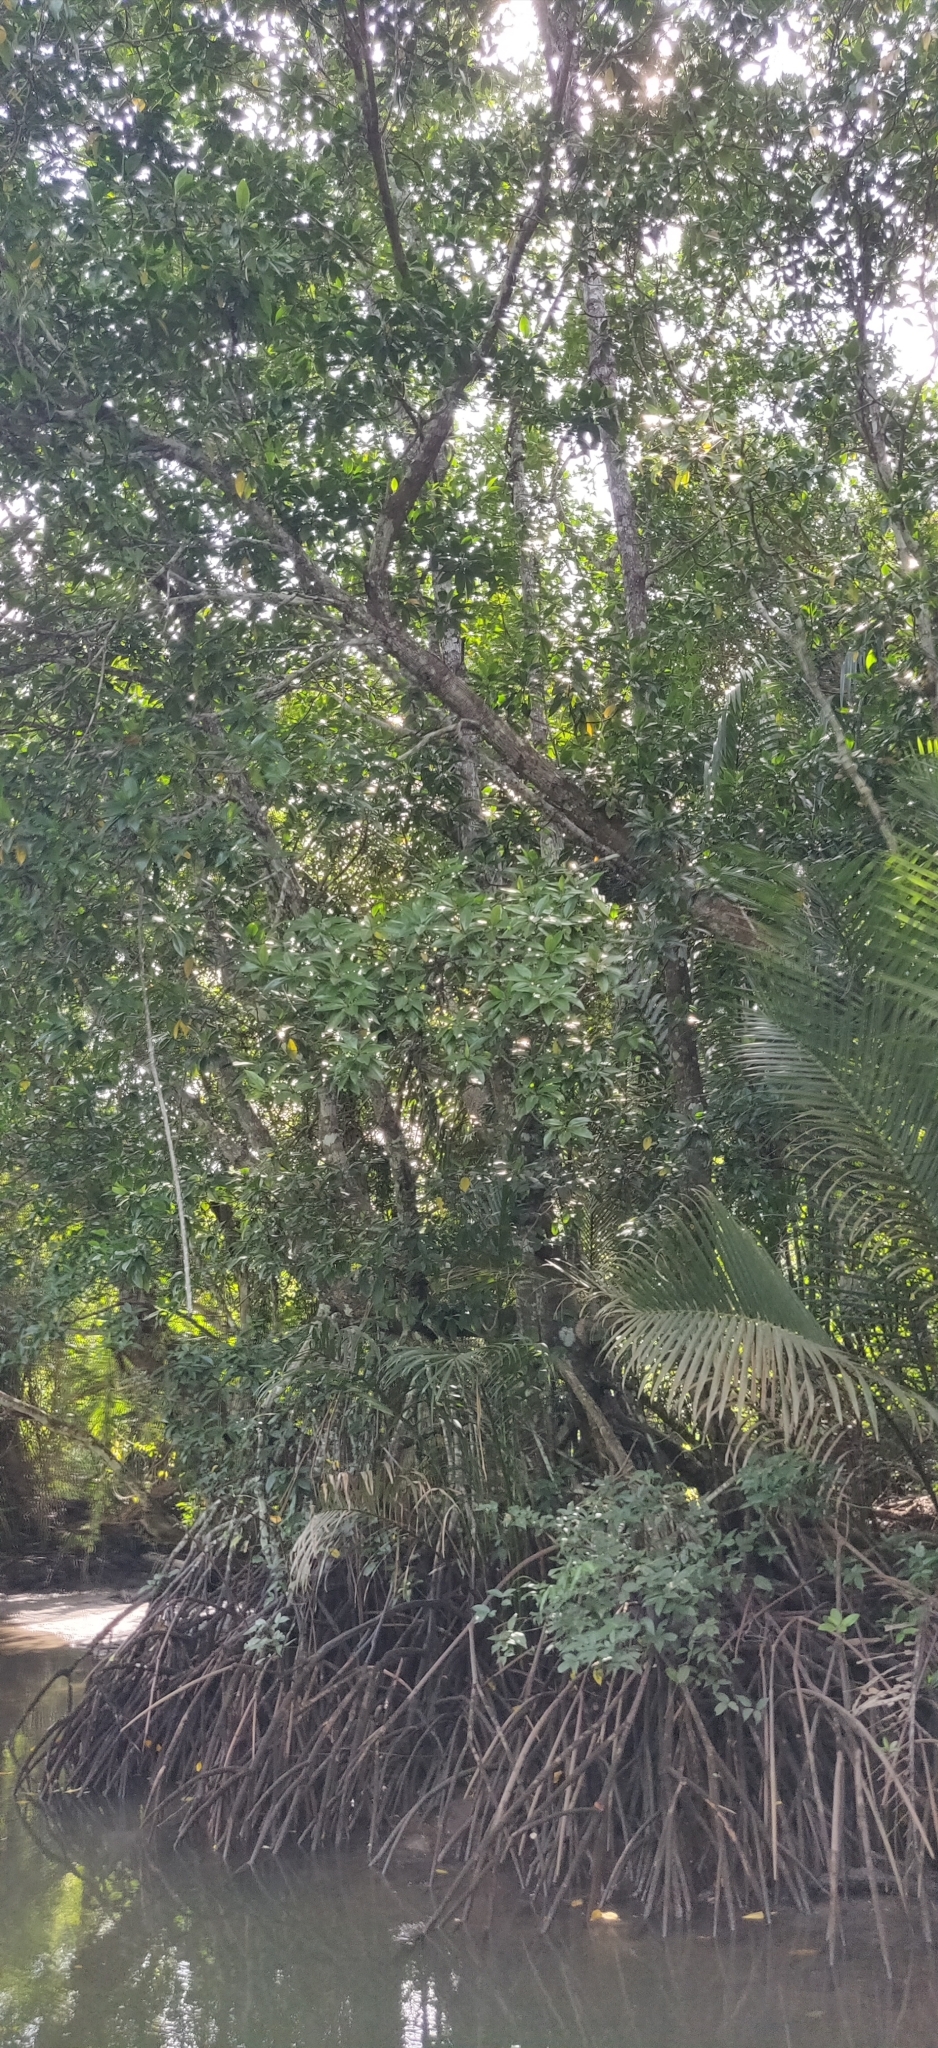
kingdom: Plantae
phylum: Tracheophyta
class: Magnoliopsida
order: Malpighiales
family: Rhizophoraceae
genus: Rhizophora
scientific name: Rhizophora apiculata
